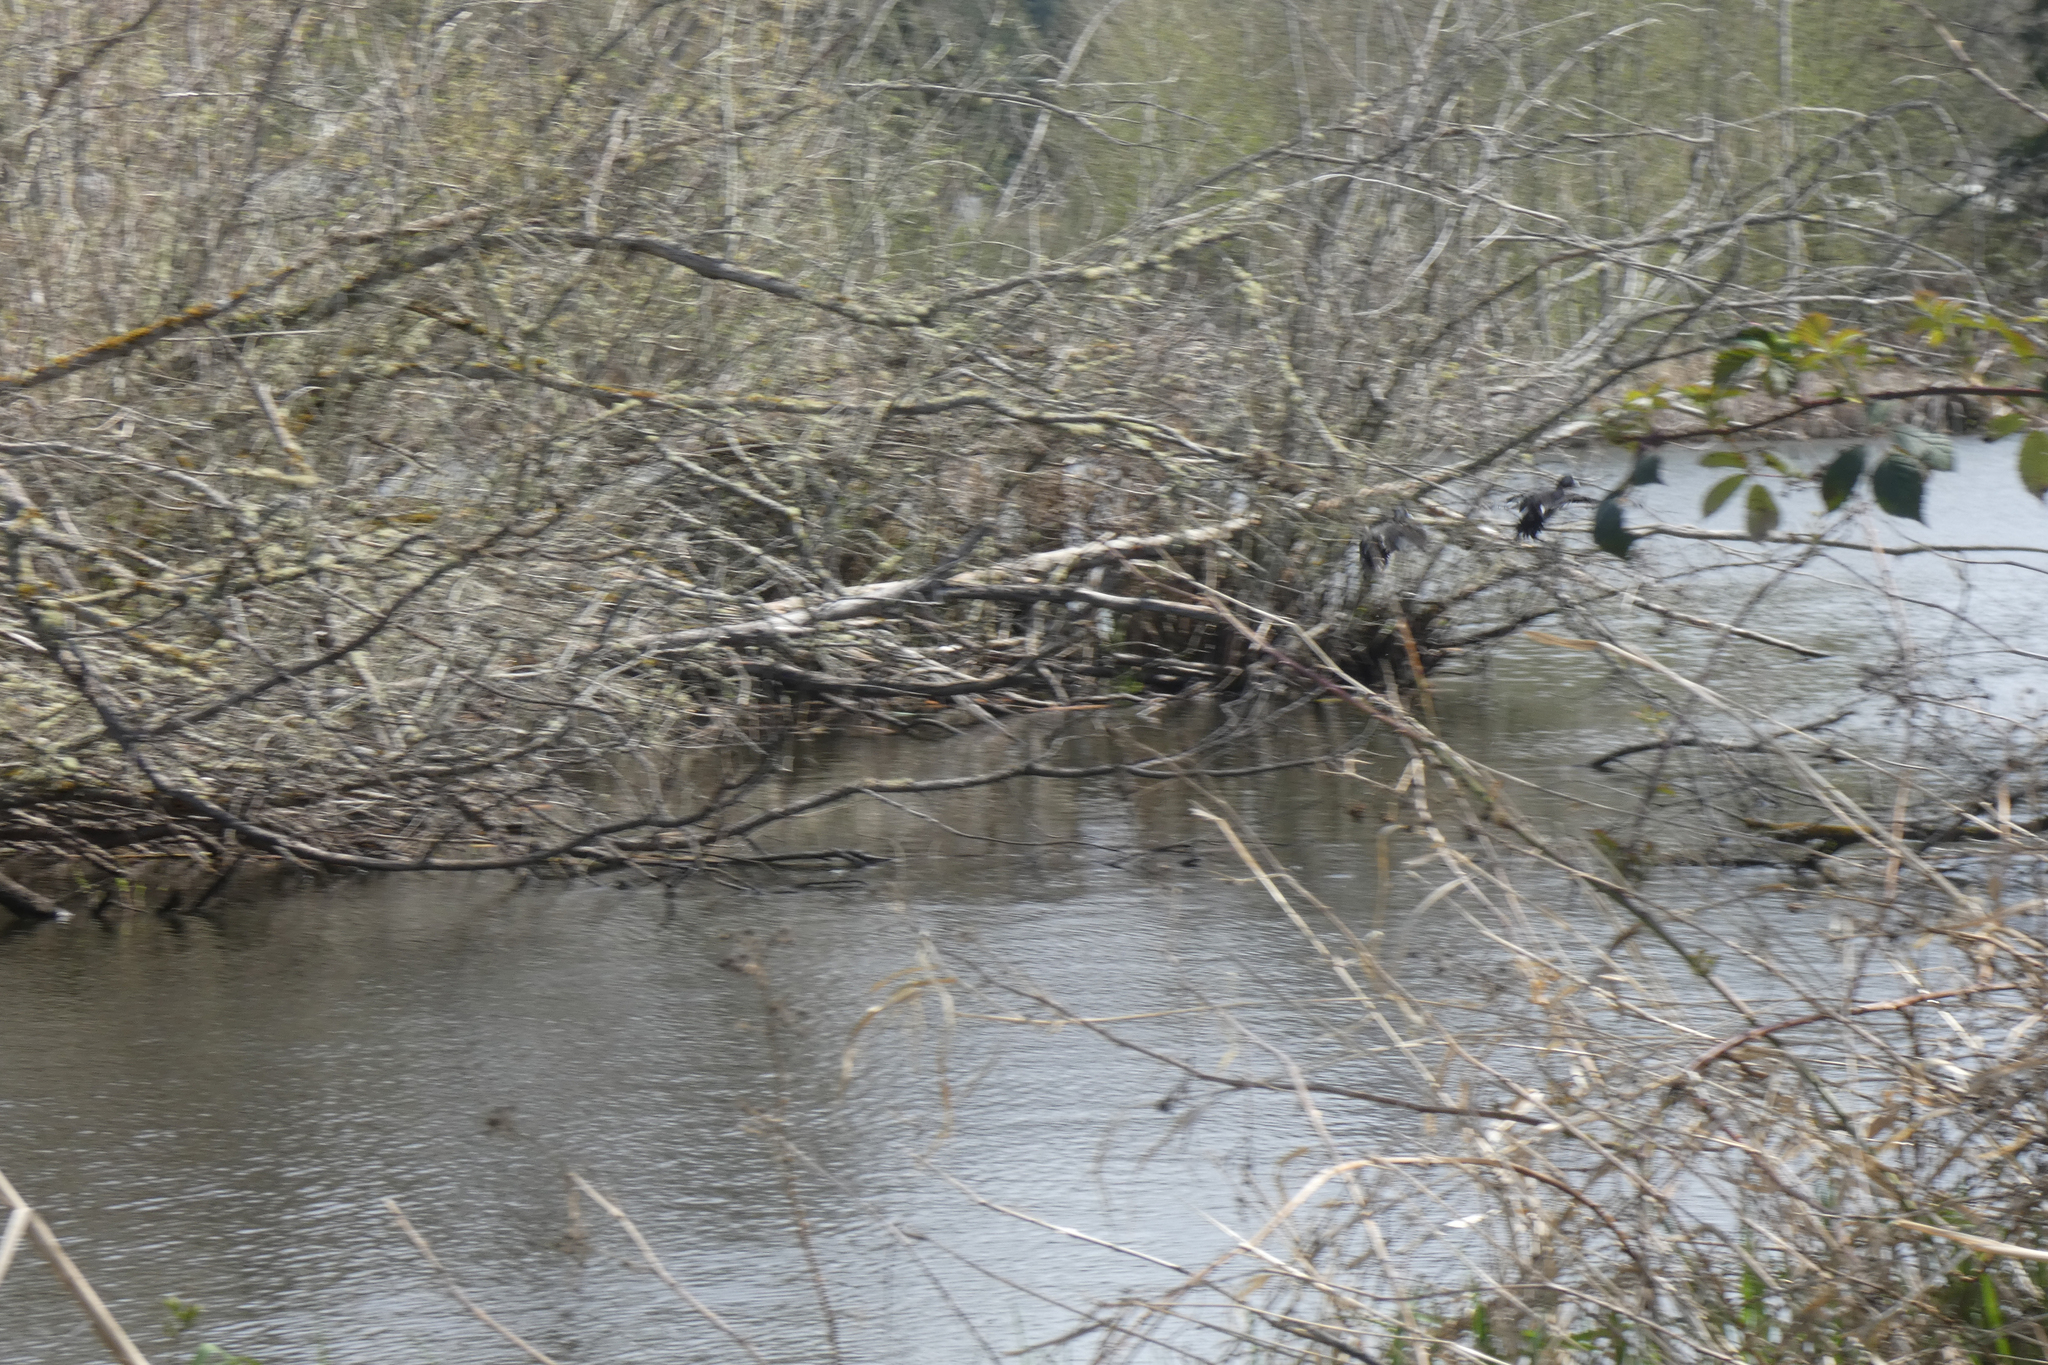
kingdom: Animalia
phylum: Chordata
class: Aves
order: Anseriformes
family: Anatidae
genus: Aythya
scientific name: Aythya collaris
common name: Ring-necked duck
